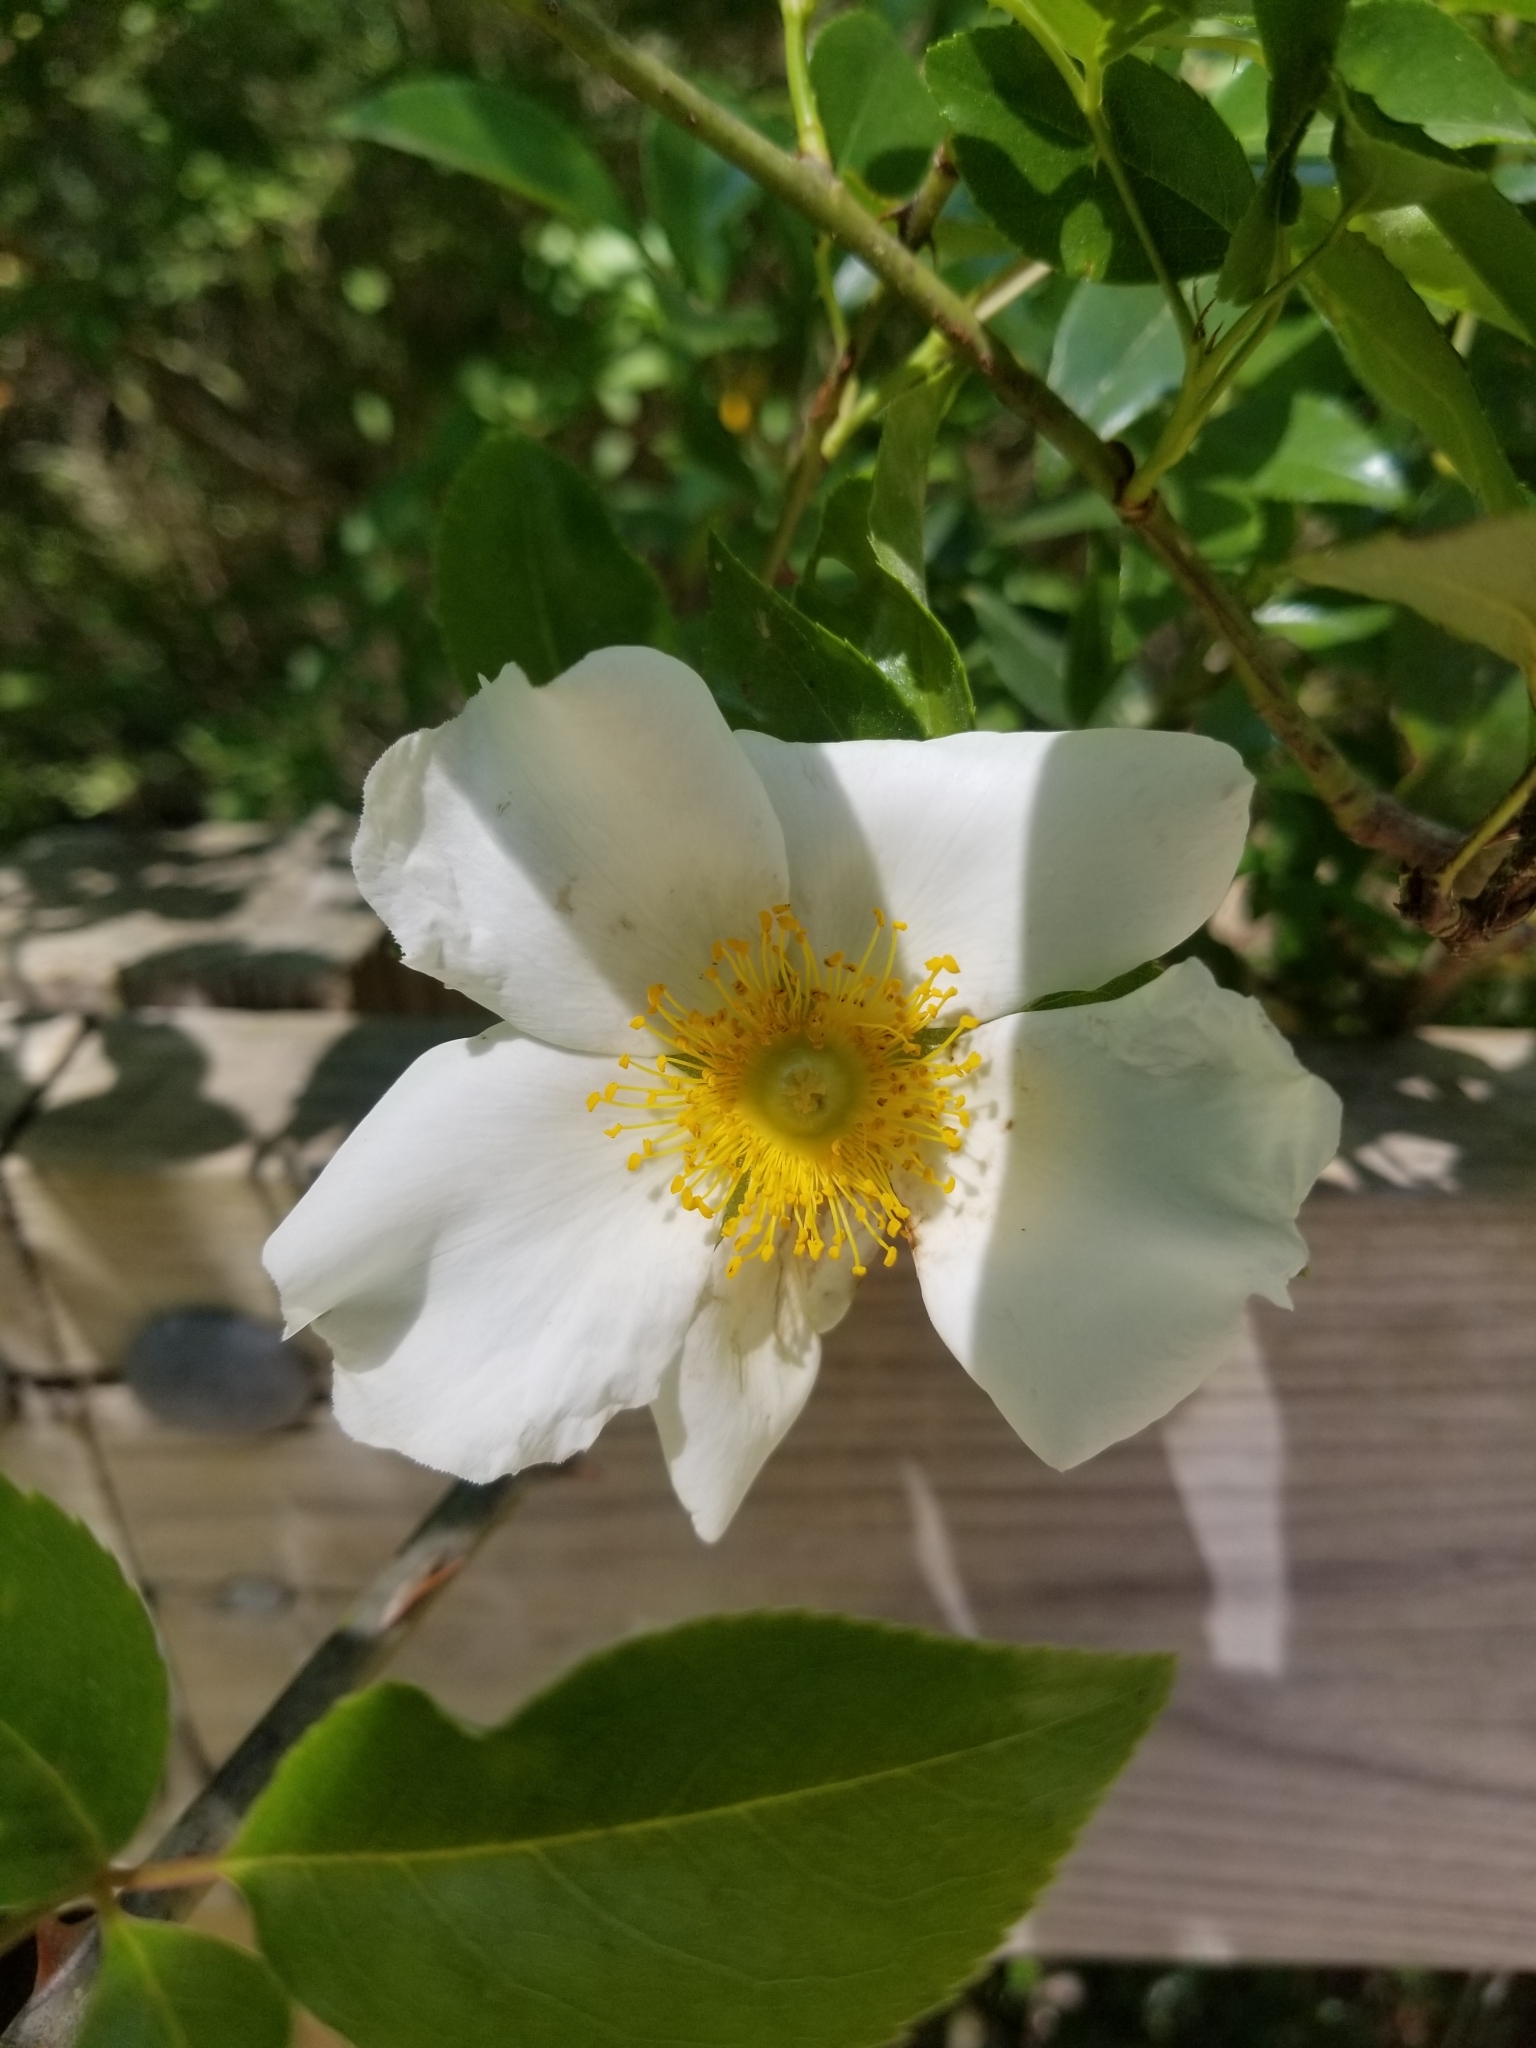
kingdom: Plantae
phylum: Tracheophyta
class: Magnoliopsida
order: Rosales
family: Rosaceae
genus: Rosa
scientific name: Rosa laevigata
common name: Cherokee rose
